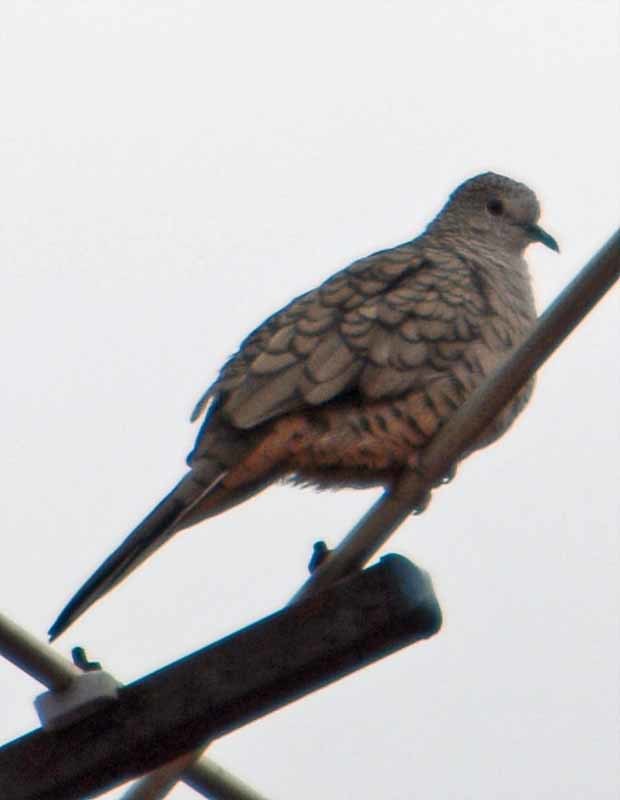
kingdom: Animalia
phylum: Chordata
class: Aves
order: Columbiformes
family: Columbidae
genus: Columbina
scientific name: Columbina inca
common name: Inca dove
